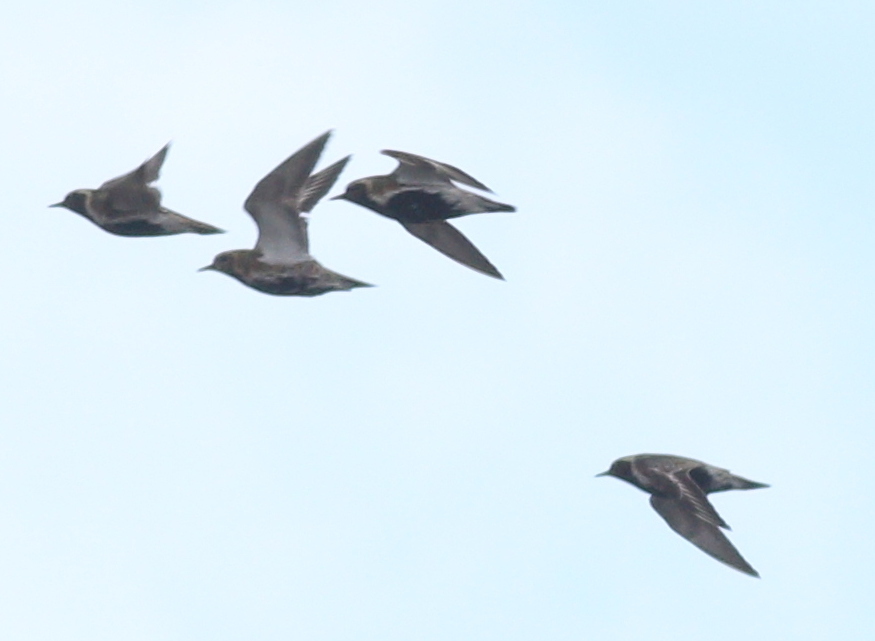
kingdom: Animalia
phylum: Chordata
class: Aves
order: Charadriiformes
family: Charadriidae
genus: Pluvialis
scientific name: Pluvialis apricaria
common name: European golden plover
